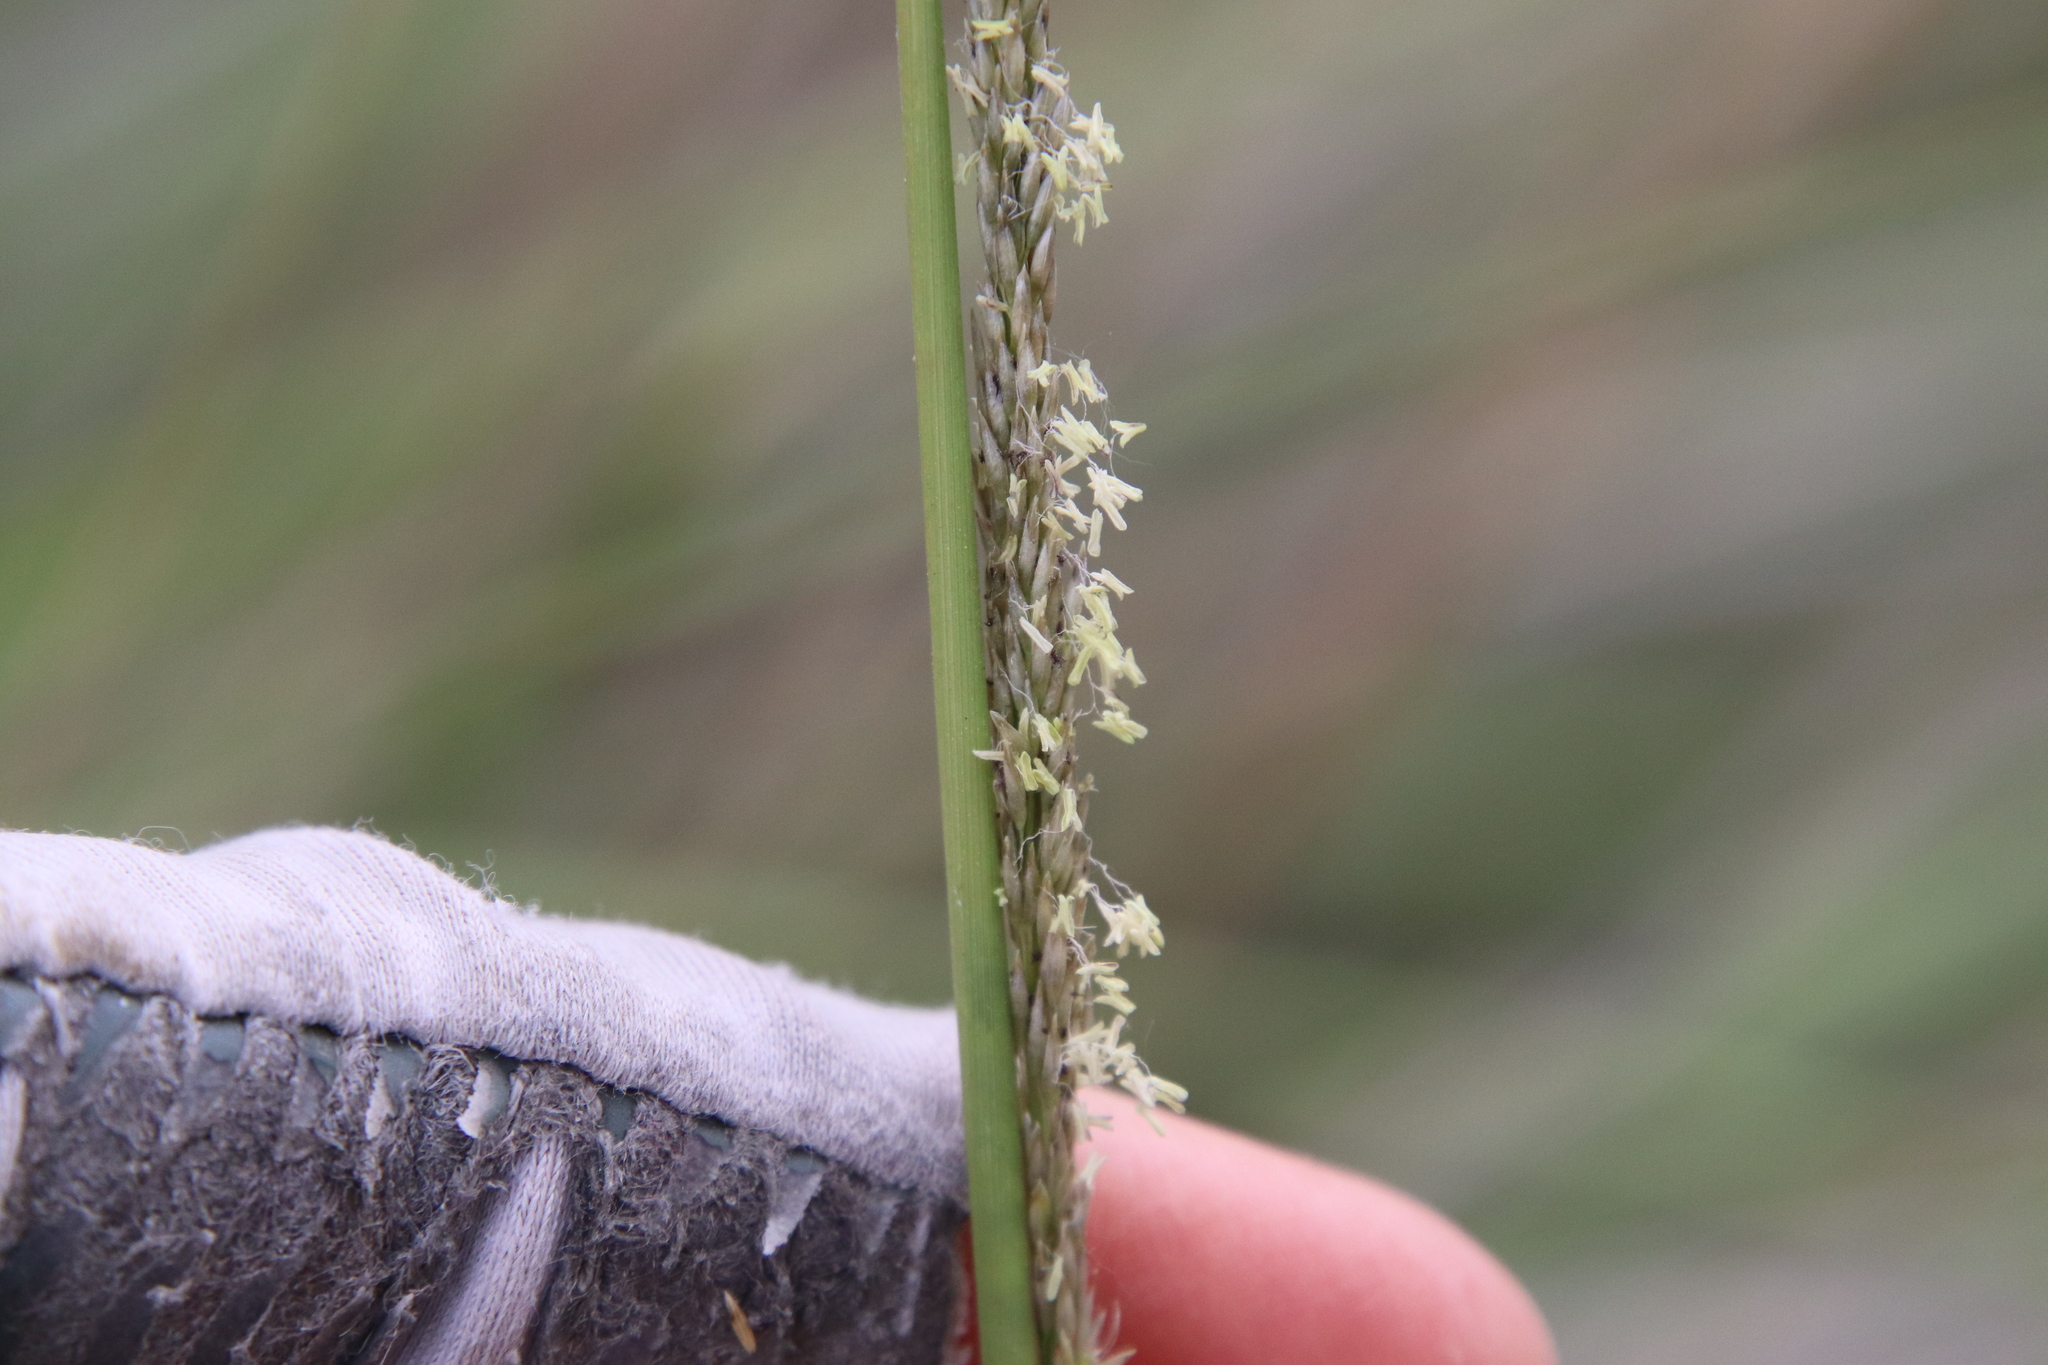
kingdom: Plantae
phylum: Tracheophyta
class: Liliopsida
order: Poales
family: Poaceae
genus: Muhlenbergia
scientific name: Muhlenbergia rigens
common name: Deer grass
